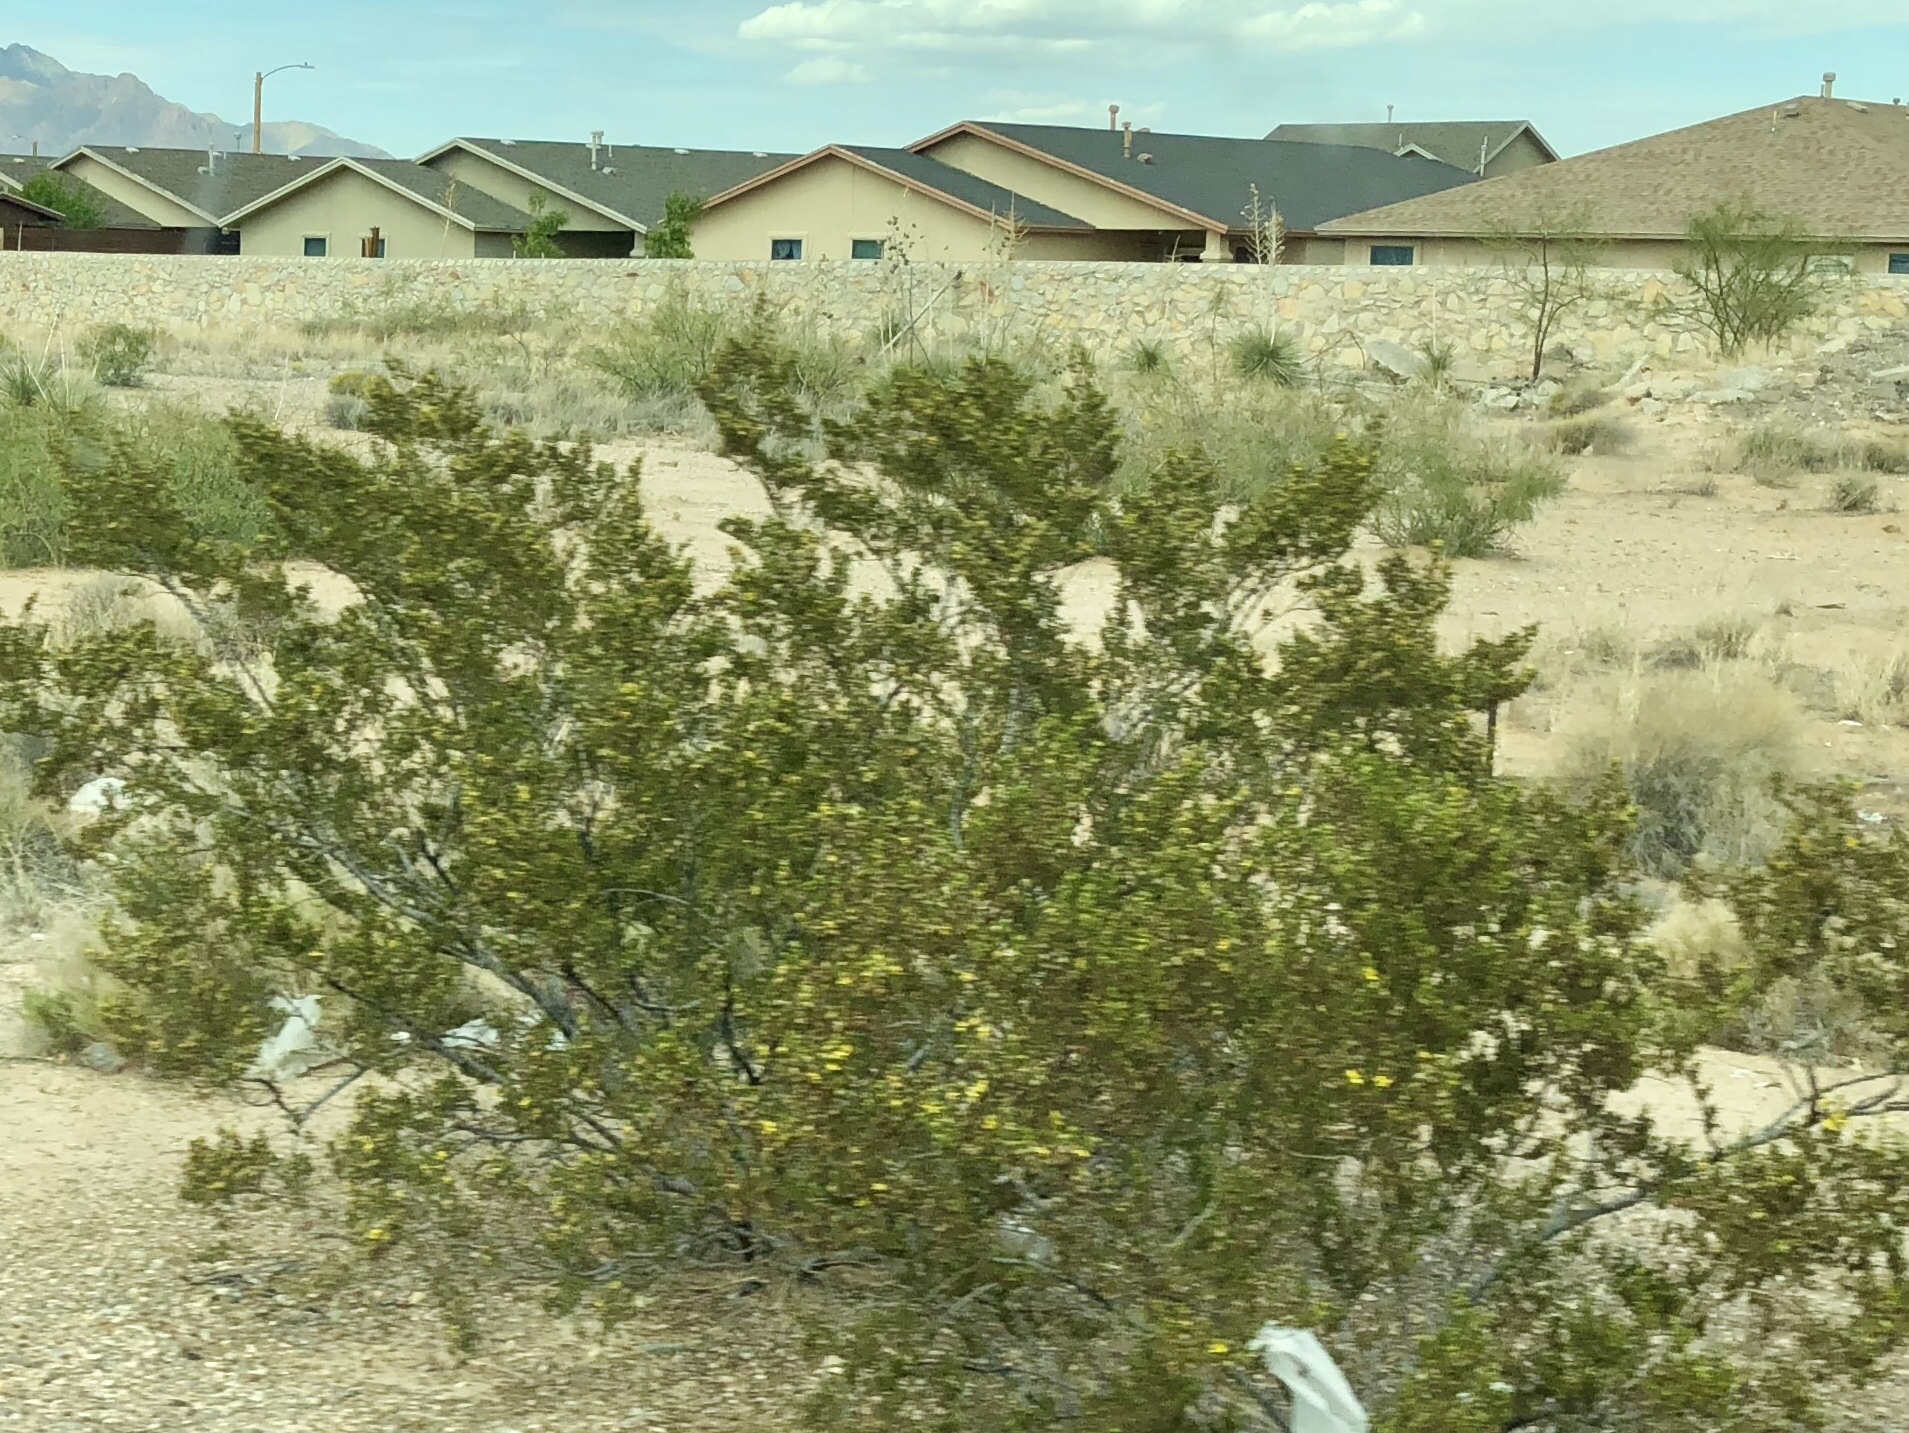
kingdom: Plantae
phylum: Tracheophyta
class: Magnoliopsida
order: Zygophyllales
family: Zygophyllaceae
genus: Larrea
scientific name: Larrea tridentata
